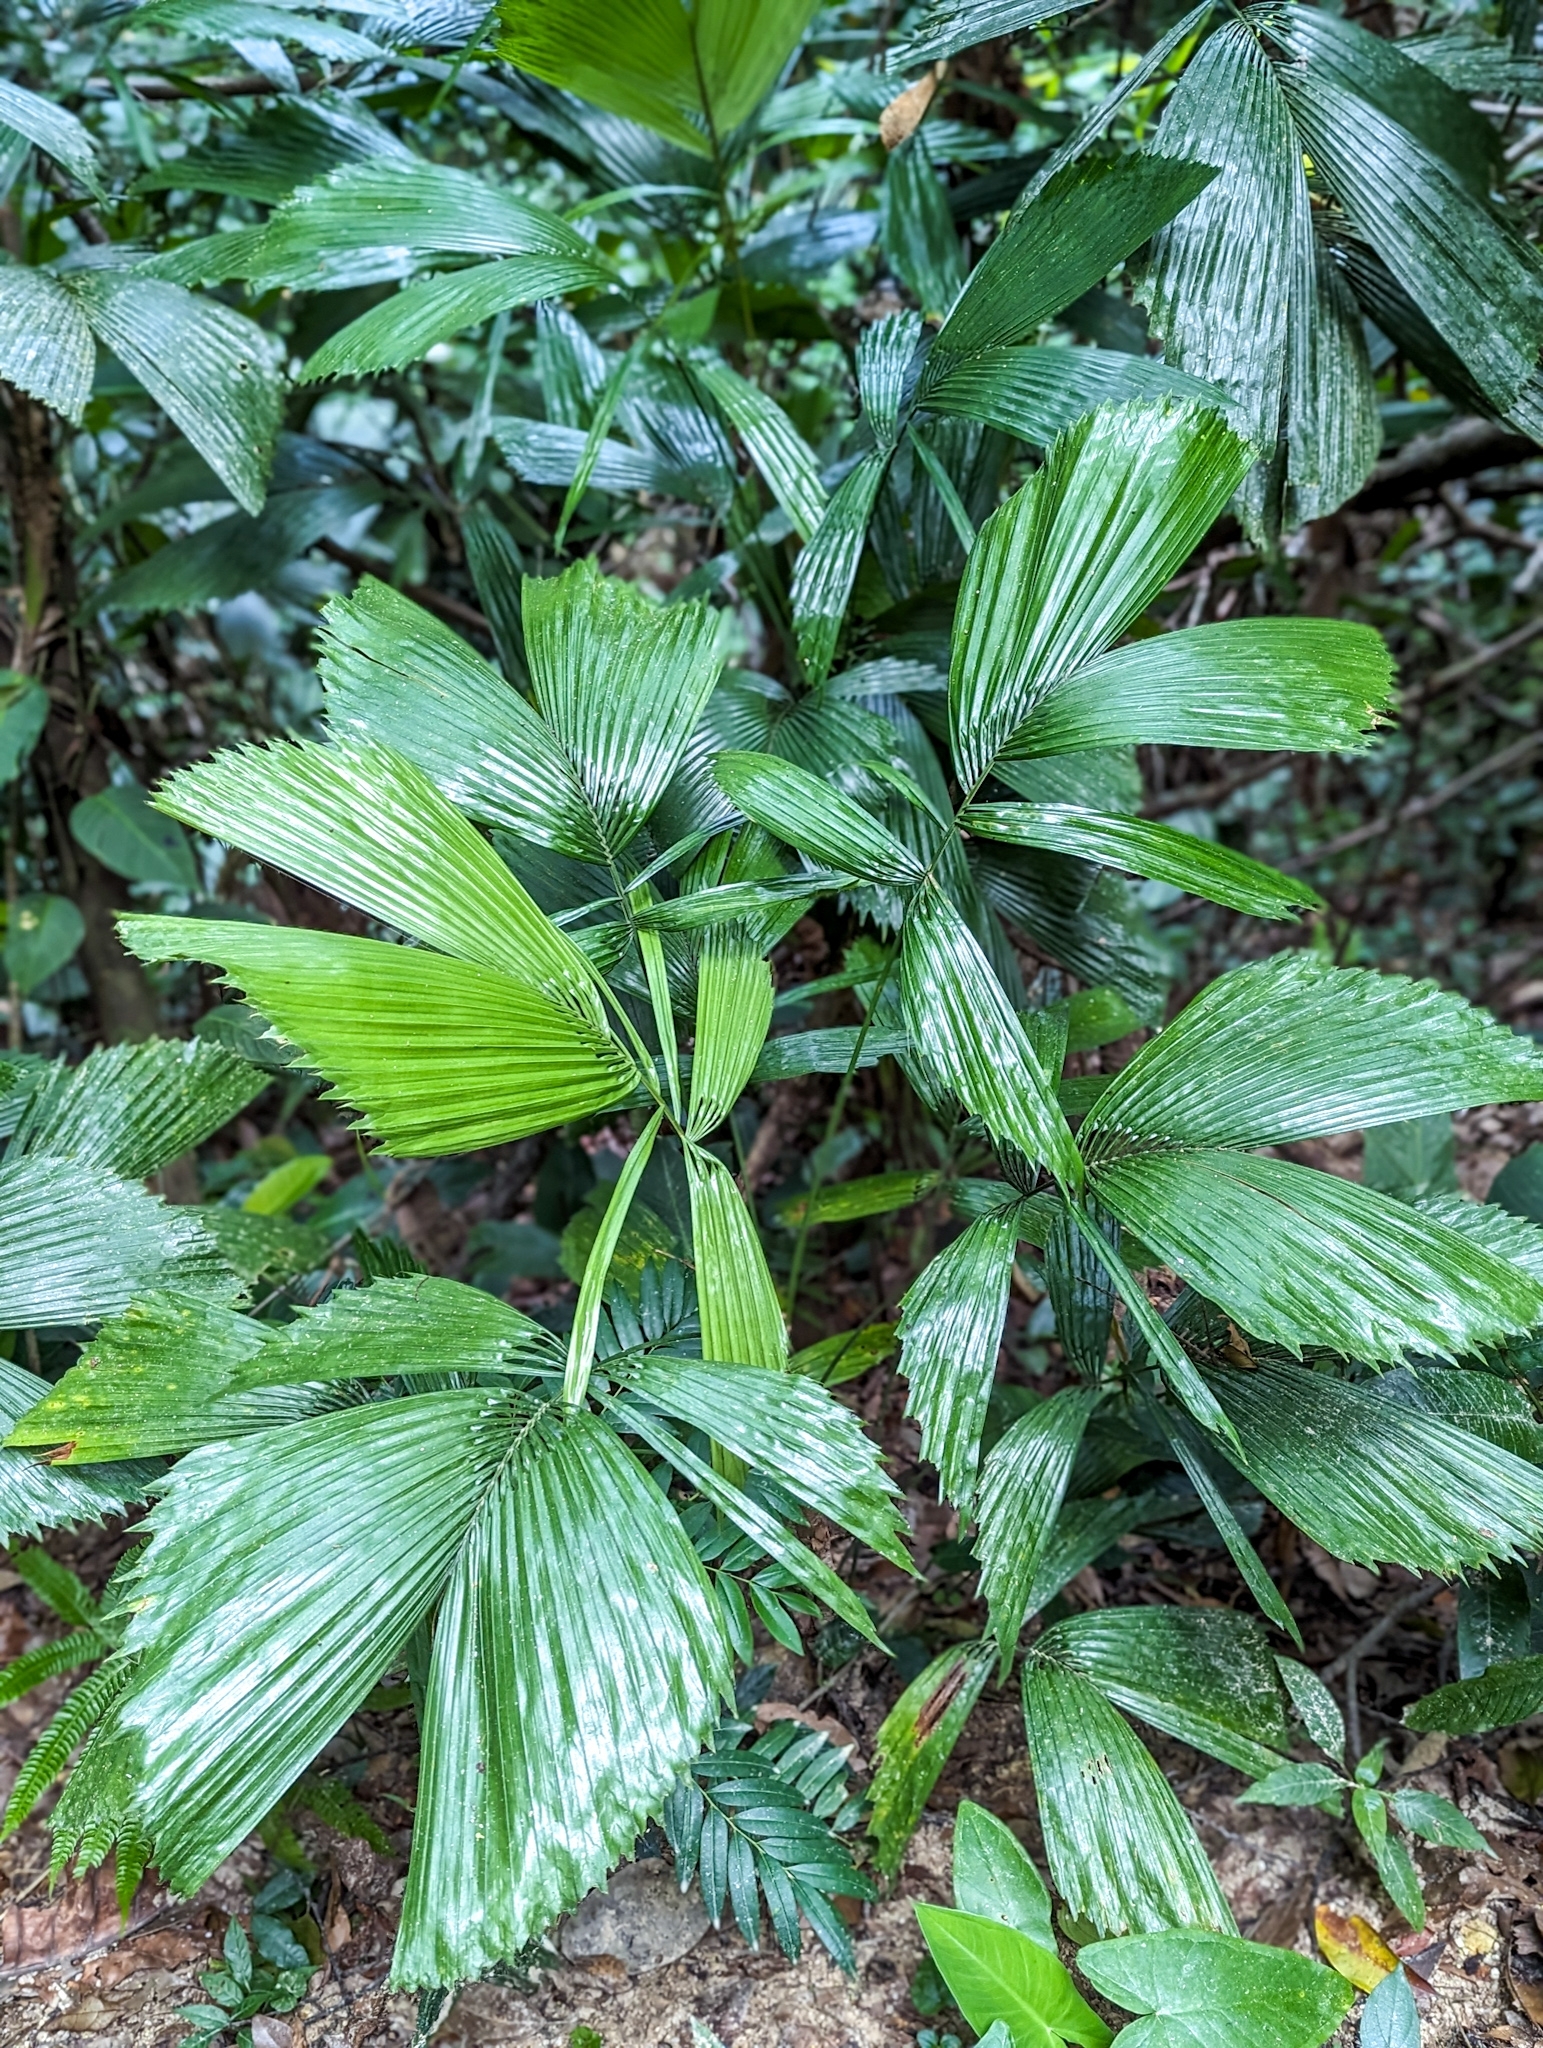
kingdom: Plantae
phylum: Tracheophyta
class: Liliopsida
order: Arecales
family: Arecaceae
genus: Reinhardtia
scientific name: Reinhardtia gracilis
